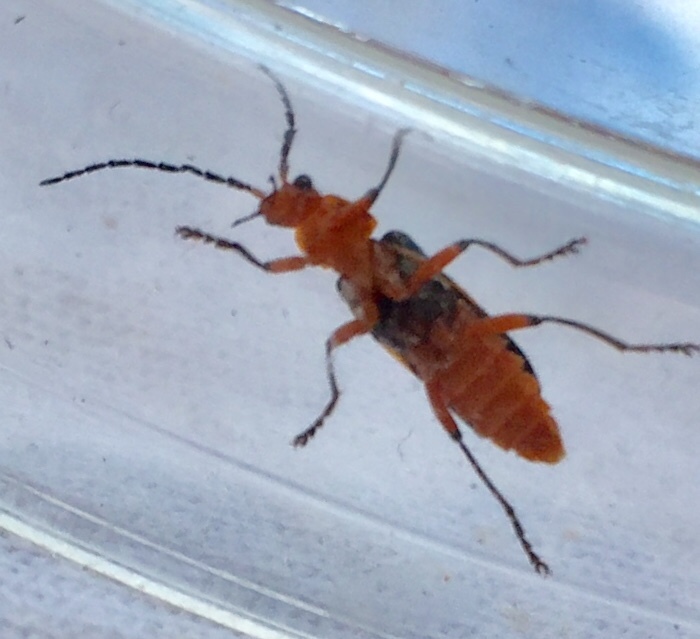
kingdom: Animalia
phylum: Arthropoda
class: Insecta
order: Coleoptera
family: Cantharidae
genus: Atalantycha
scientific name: Atalantycha bilineata
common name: Two-lined leatherwing
